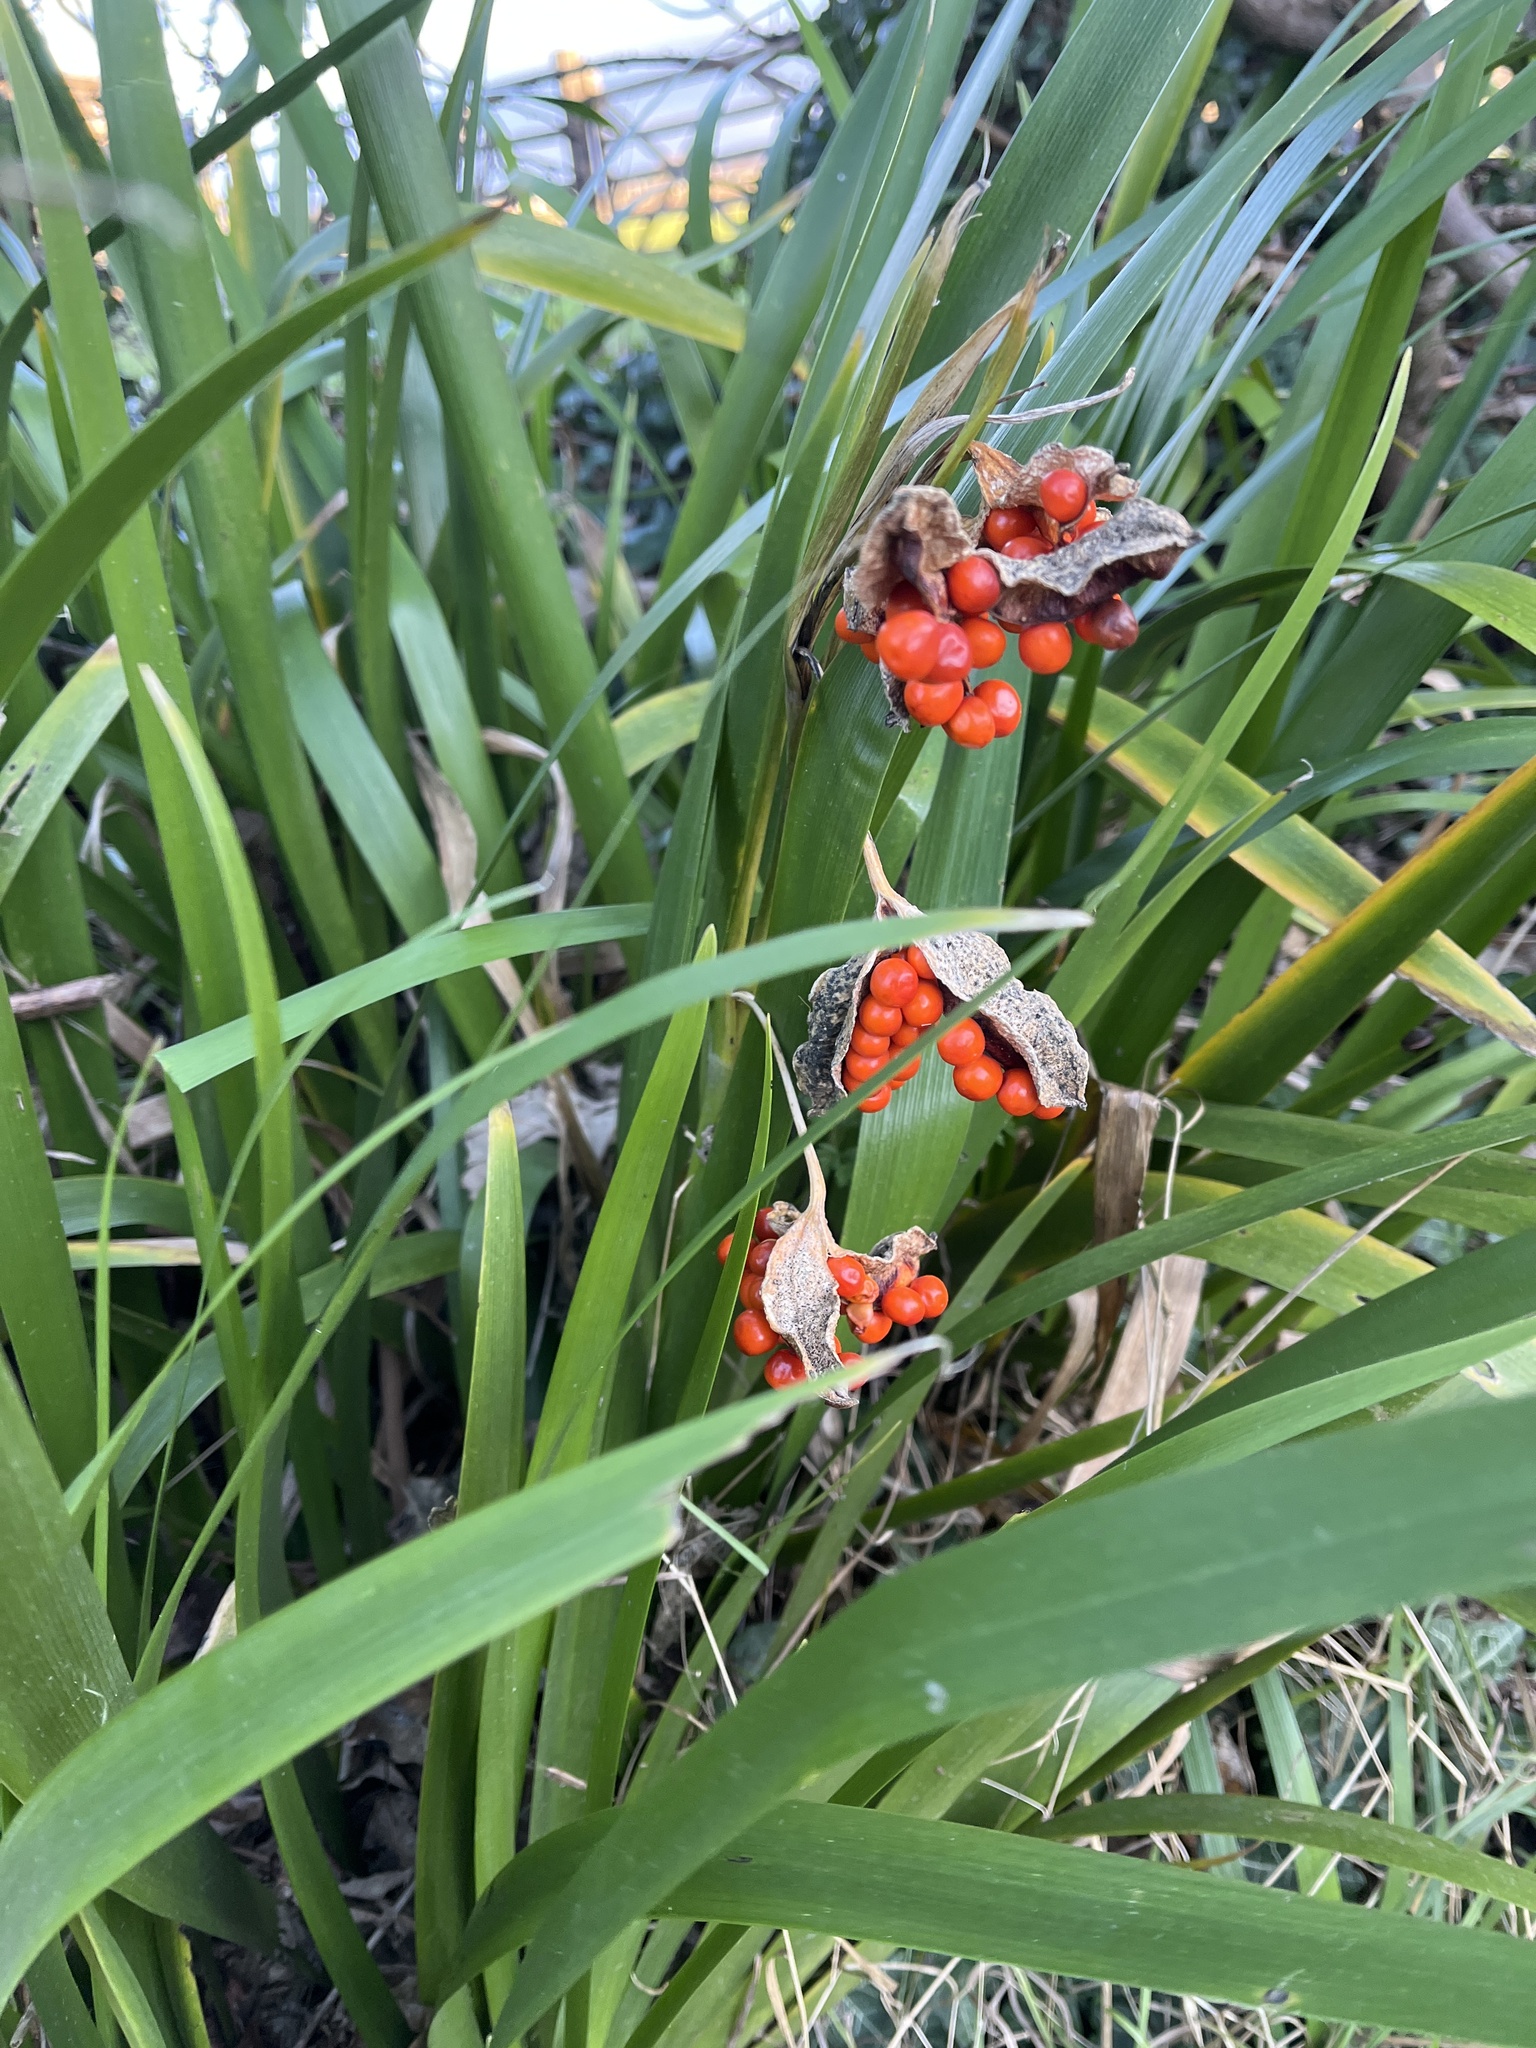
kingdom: Plantae
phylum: Tracheophyta
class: Liliopsida
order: Asparagales
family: Iridaceae
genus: Iris
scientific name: Iris foetidissima
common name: Stinking iris
